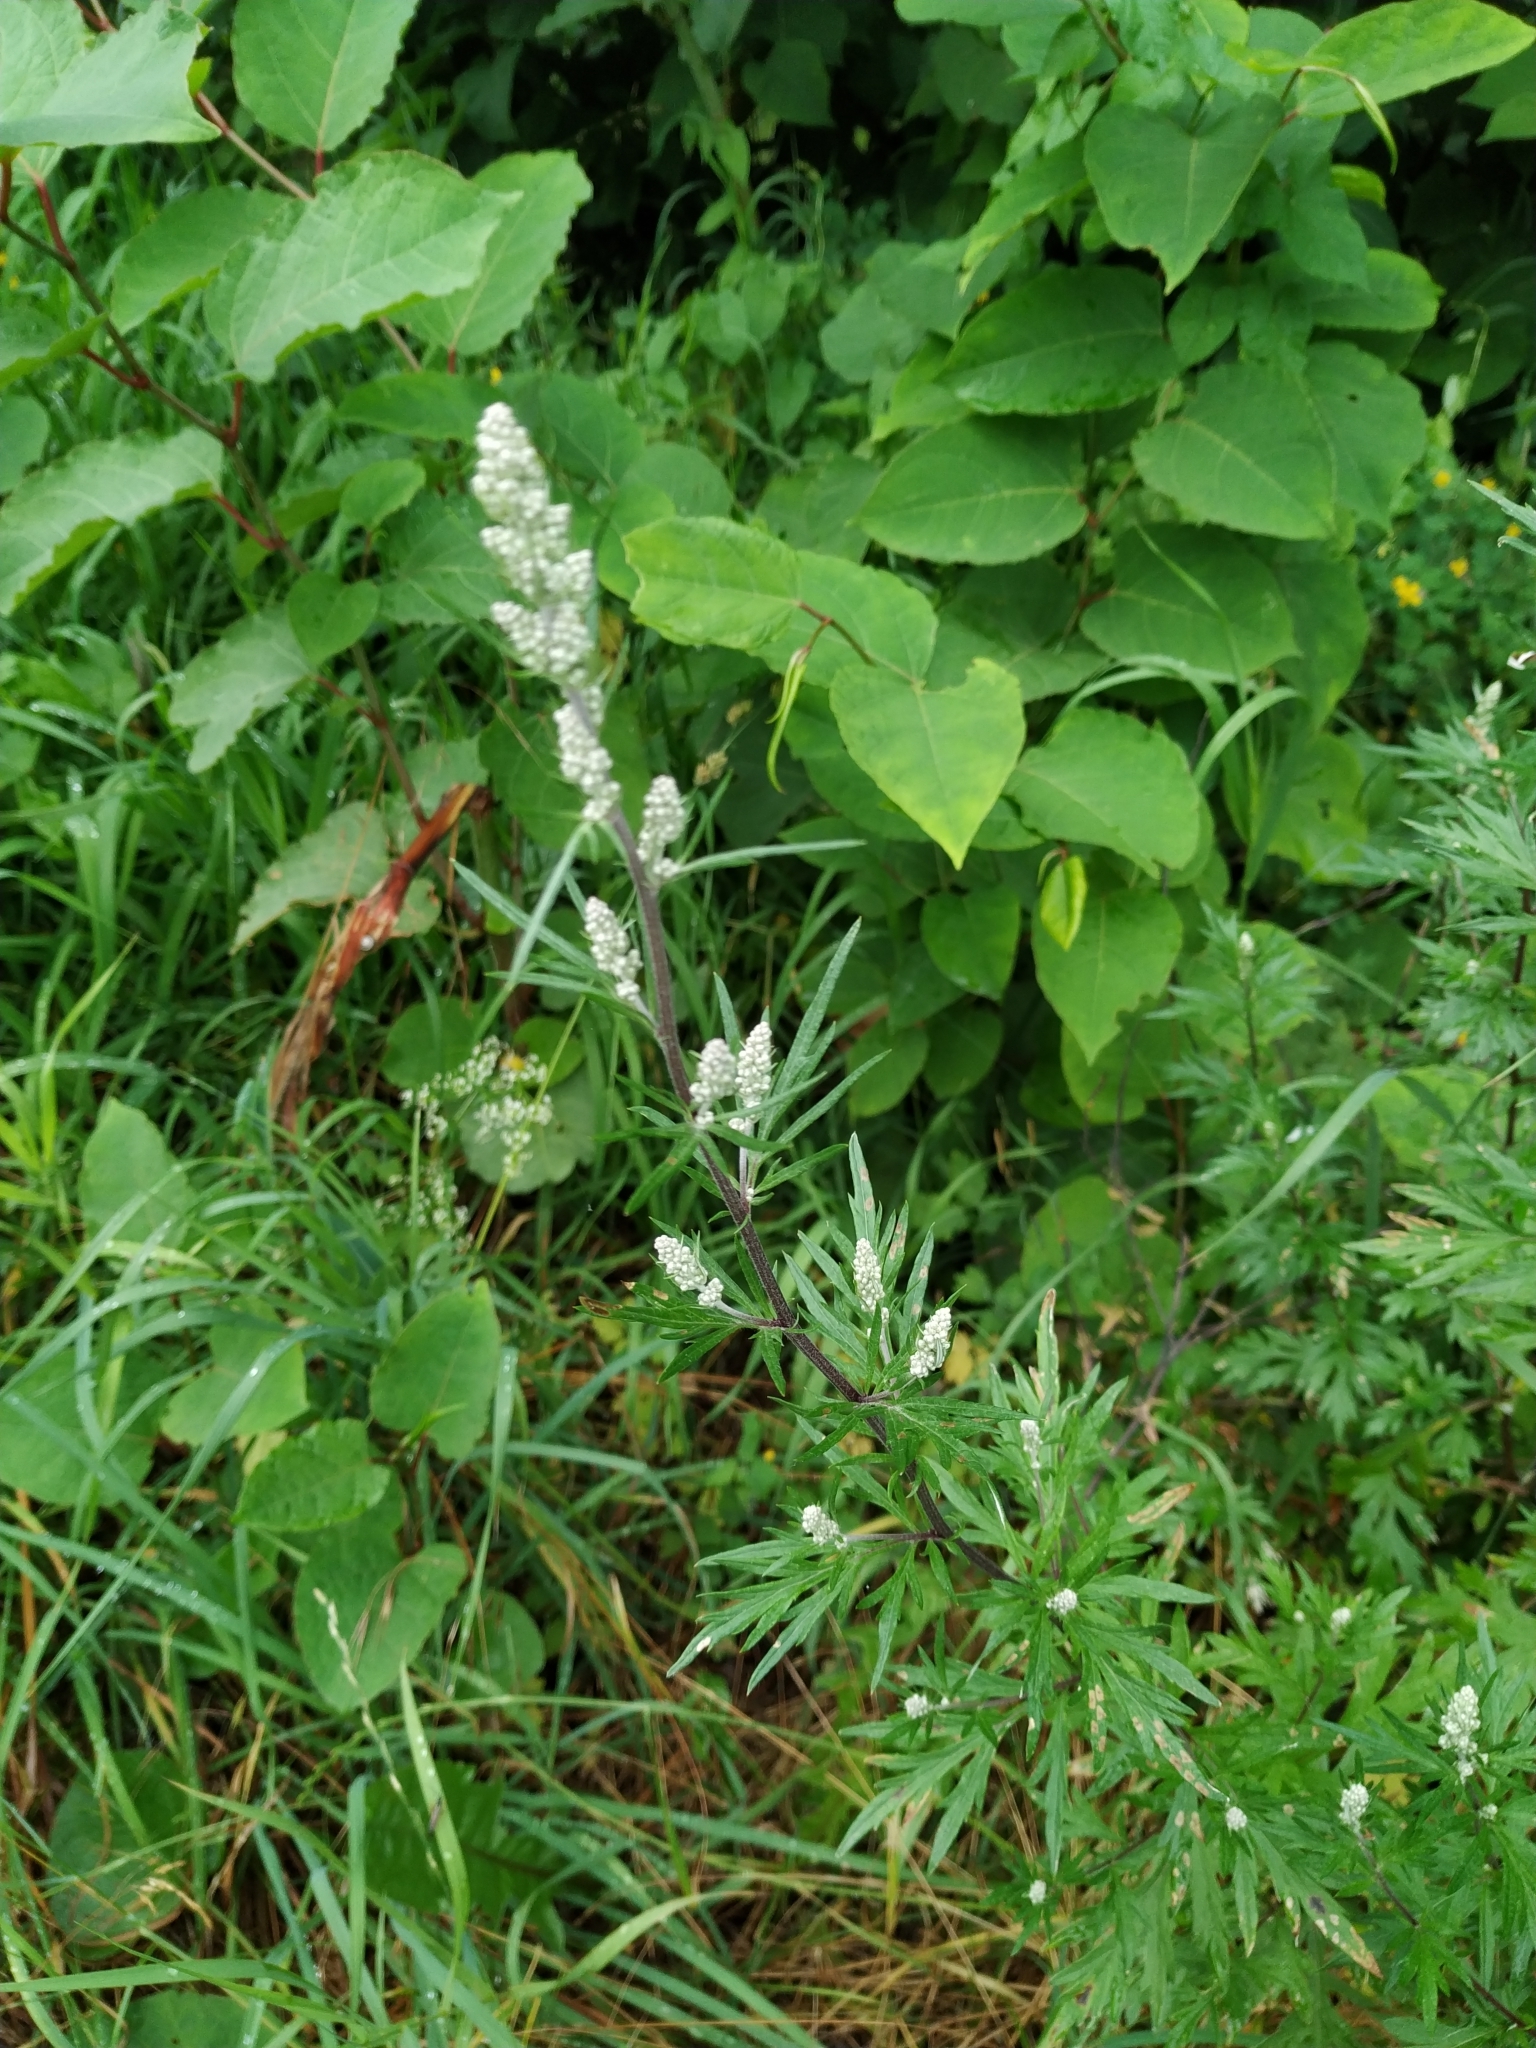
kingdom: Plantae
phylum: Tracheophyta
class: Magnoliopsida
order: Asterales
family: Asteraceae
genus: Artemisia
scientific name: Artemisia vulgaris
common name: Mugwort
